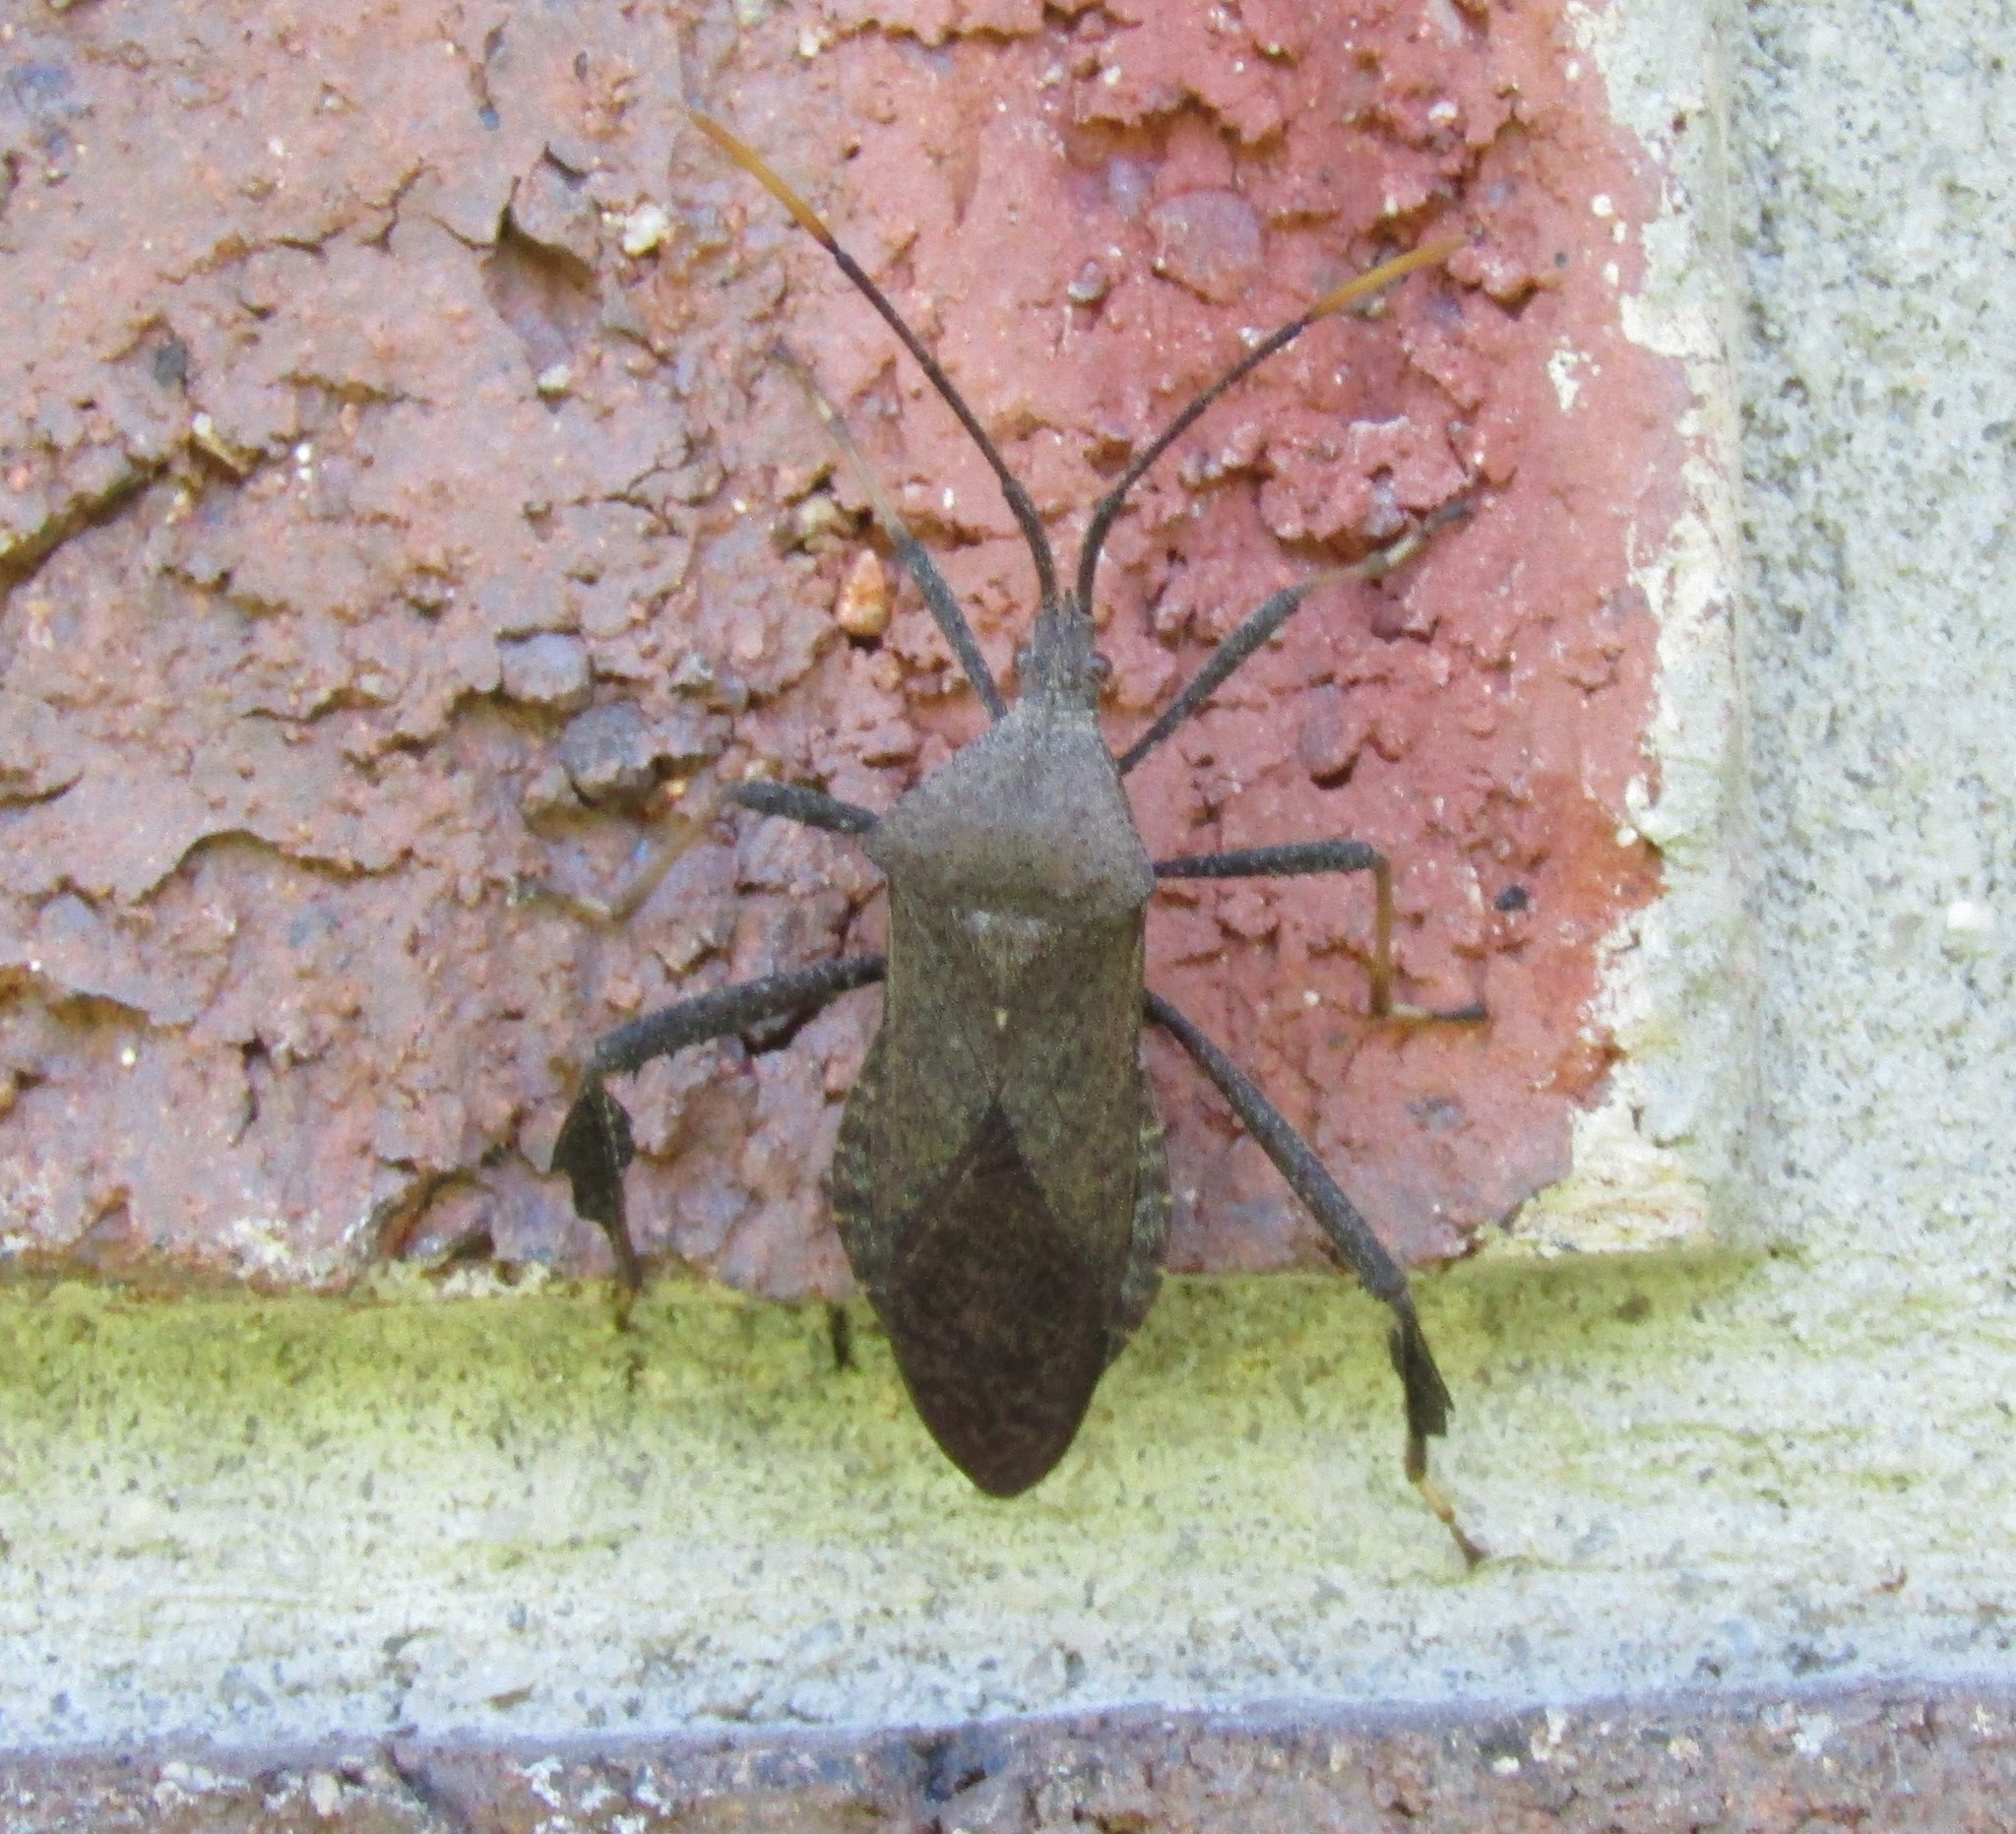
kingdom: Animalia
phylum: Arthropoda
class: Insecta
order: Hemiptera
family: Coreidae
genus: Acanthocephala
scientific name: Acanthocephala terminalis
